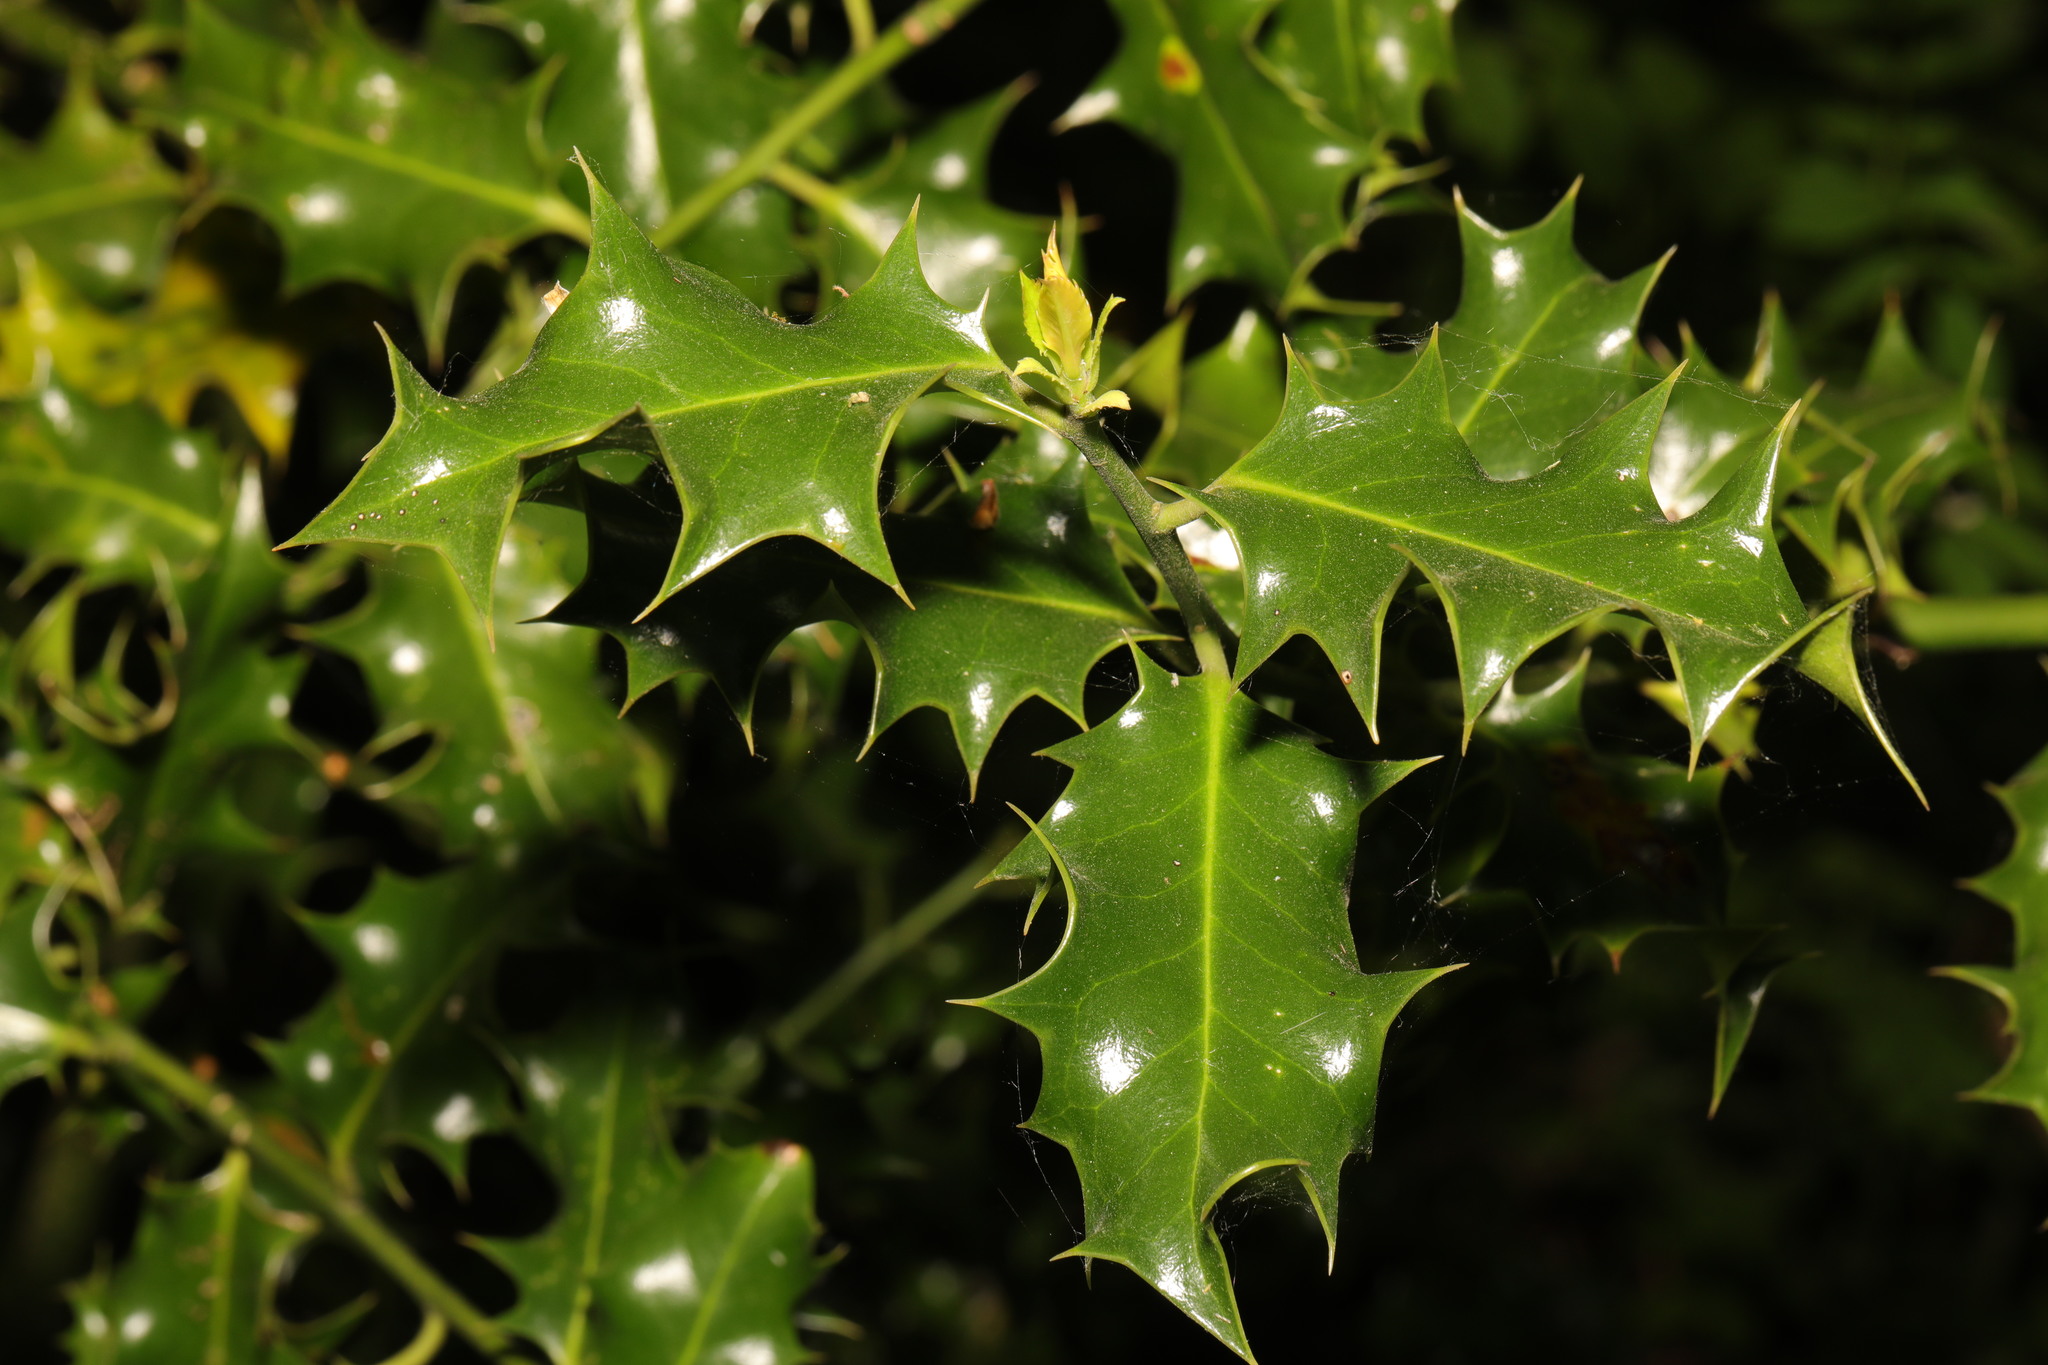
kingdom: Plantae
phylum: Tracheophyta
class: Magnoliopsida
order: Aquifoliales
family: Aquifoliaceae
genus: Ilex
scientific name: Ilex aquifolium
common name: English holly
